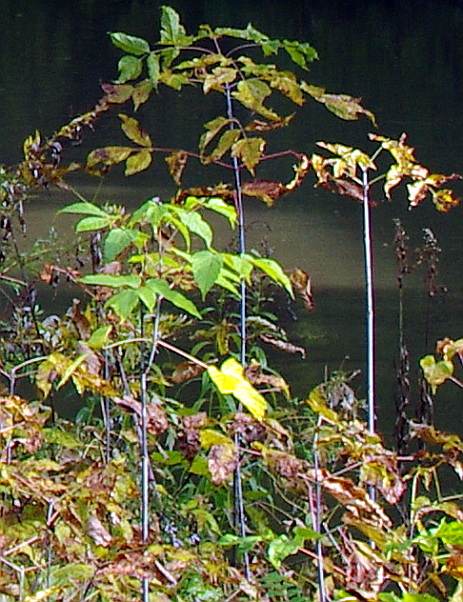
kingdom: Plantae
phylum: Tracheophyta
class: Magnoliopsida
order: Sapindales
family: Sapindaceae
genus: Acer
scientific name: Acer negundo
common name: Ashleaf maple
